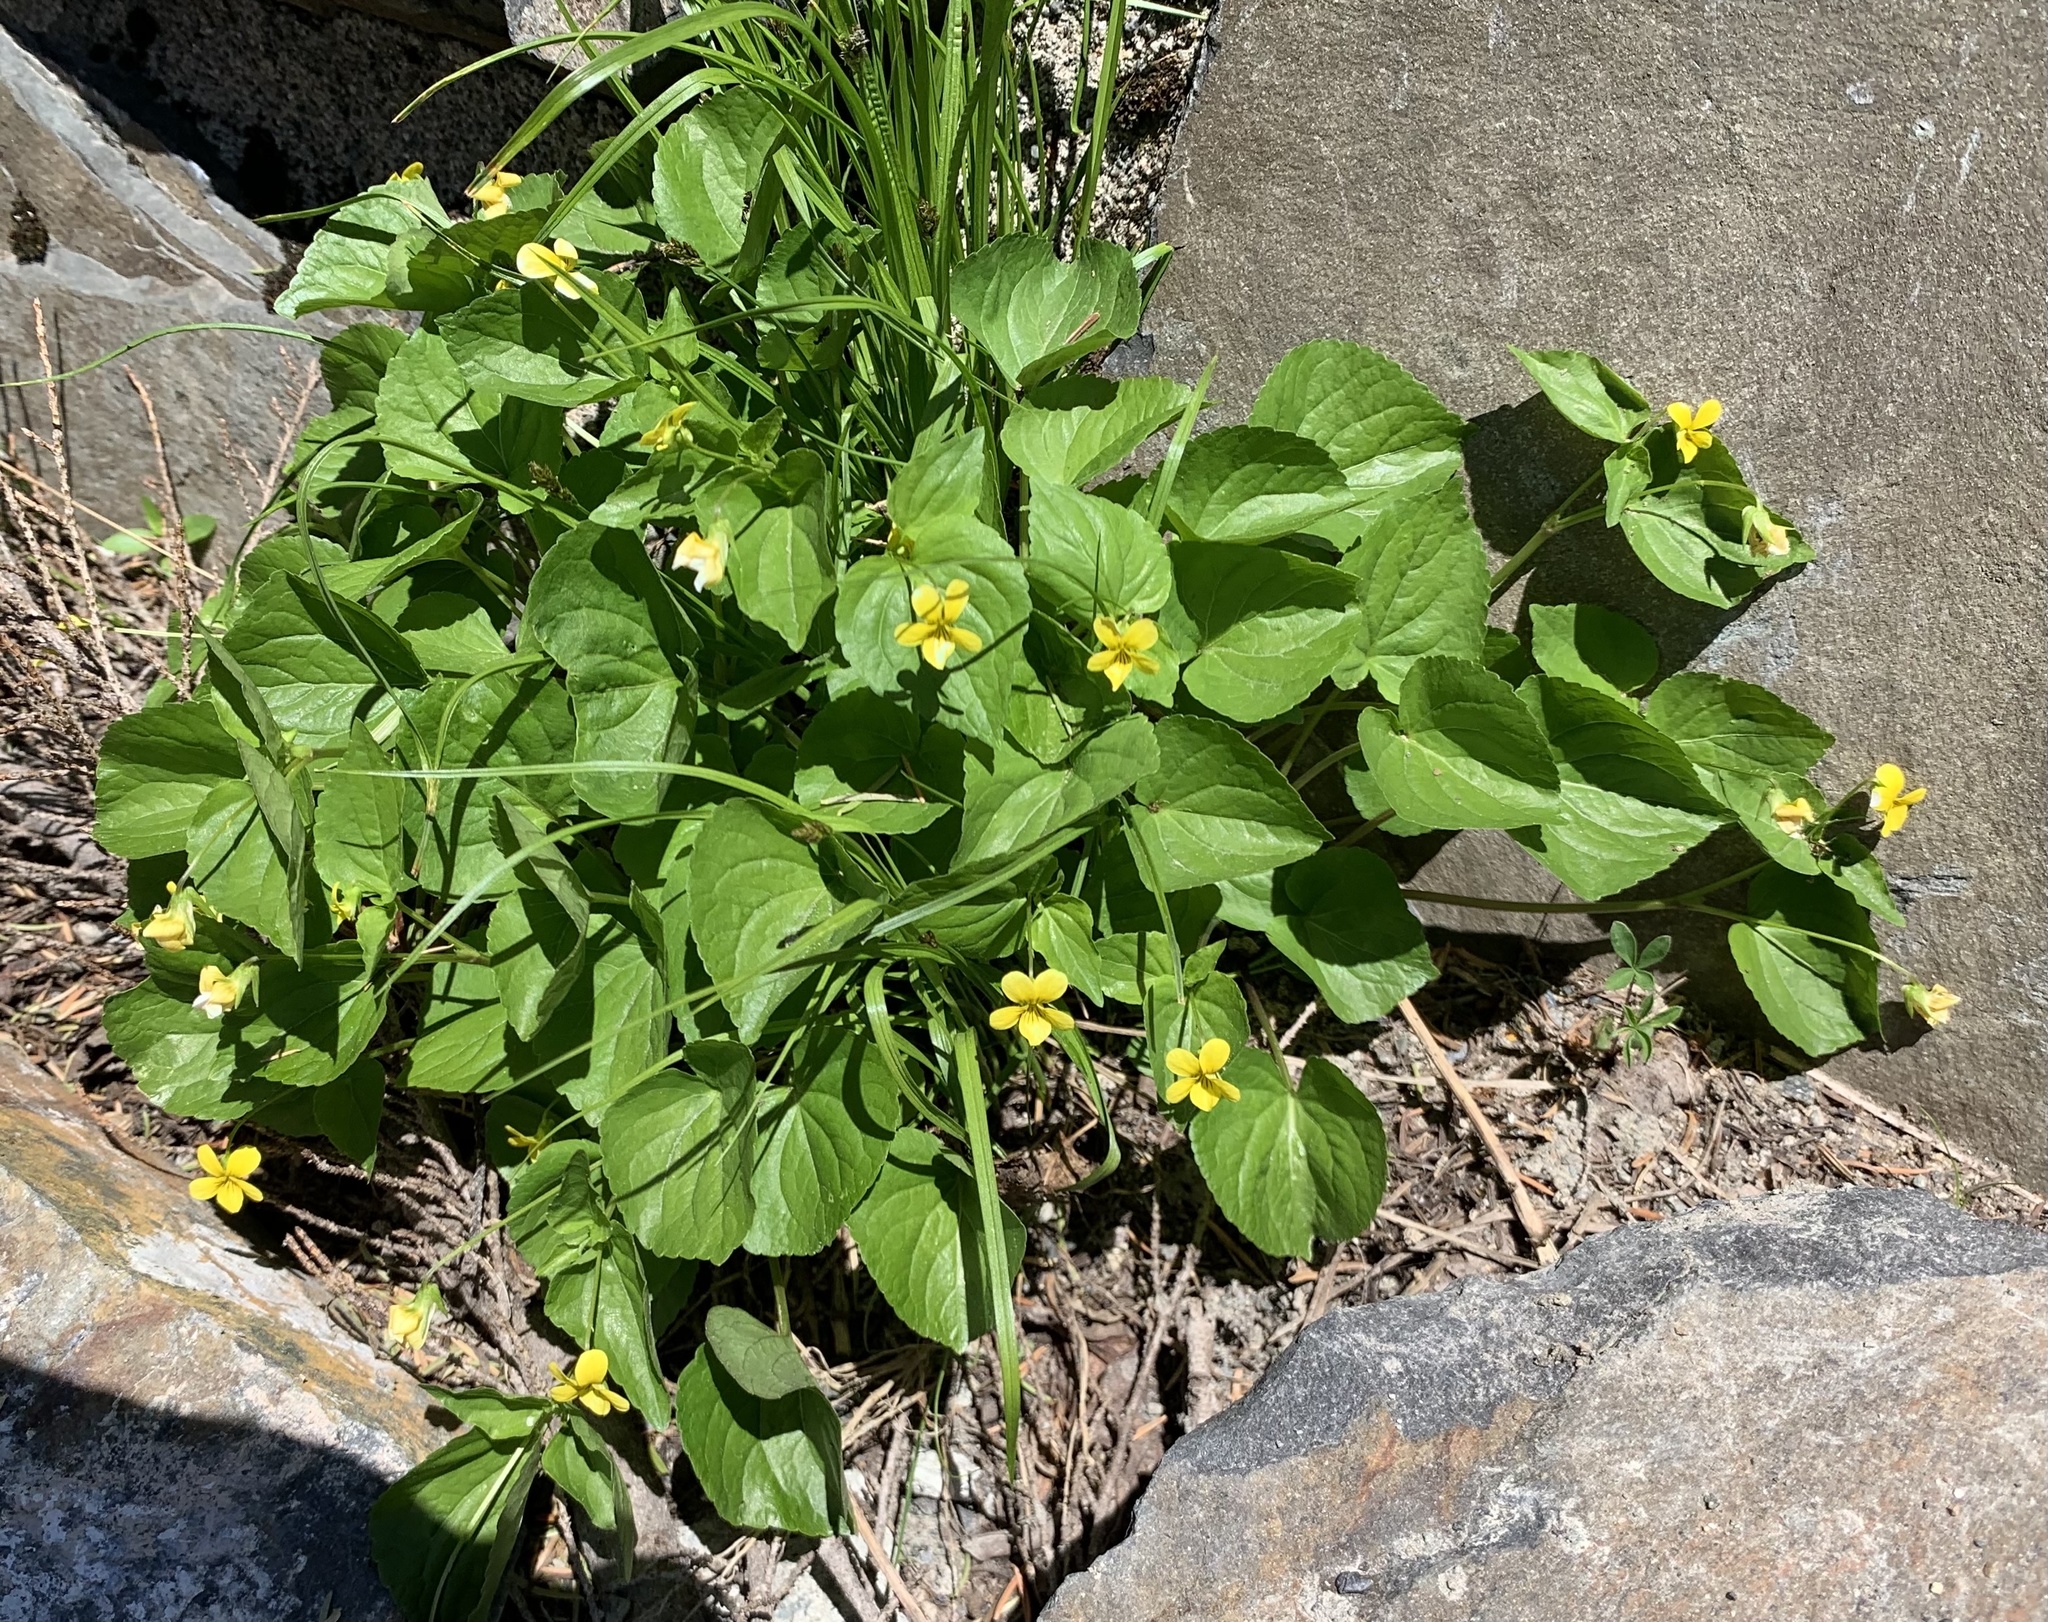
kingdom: Plantae
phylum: Tracheophyta
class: Magnoliopsida
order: Malpighiales
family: Violaceae
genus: Viola
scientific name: Viola glabella
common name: Stream violet
